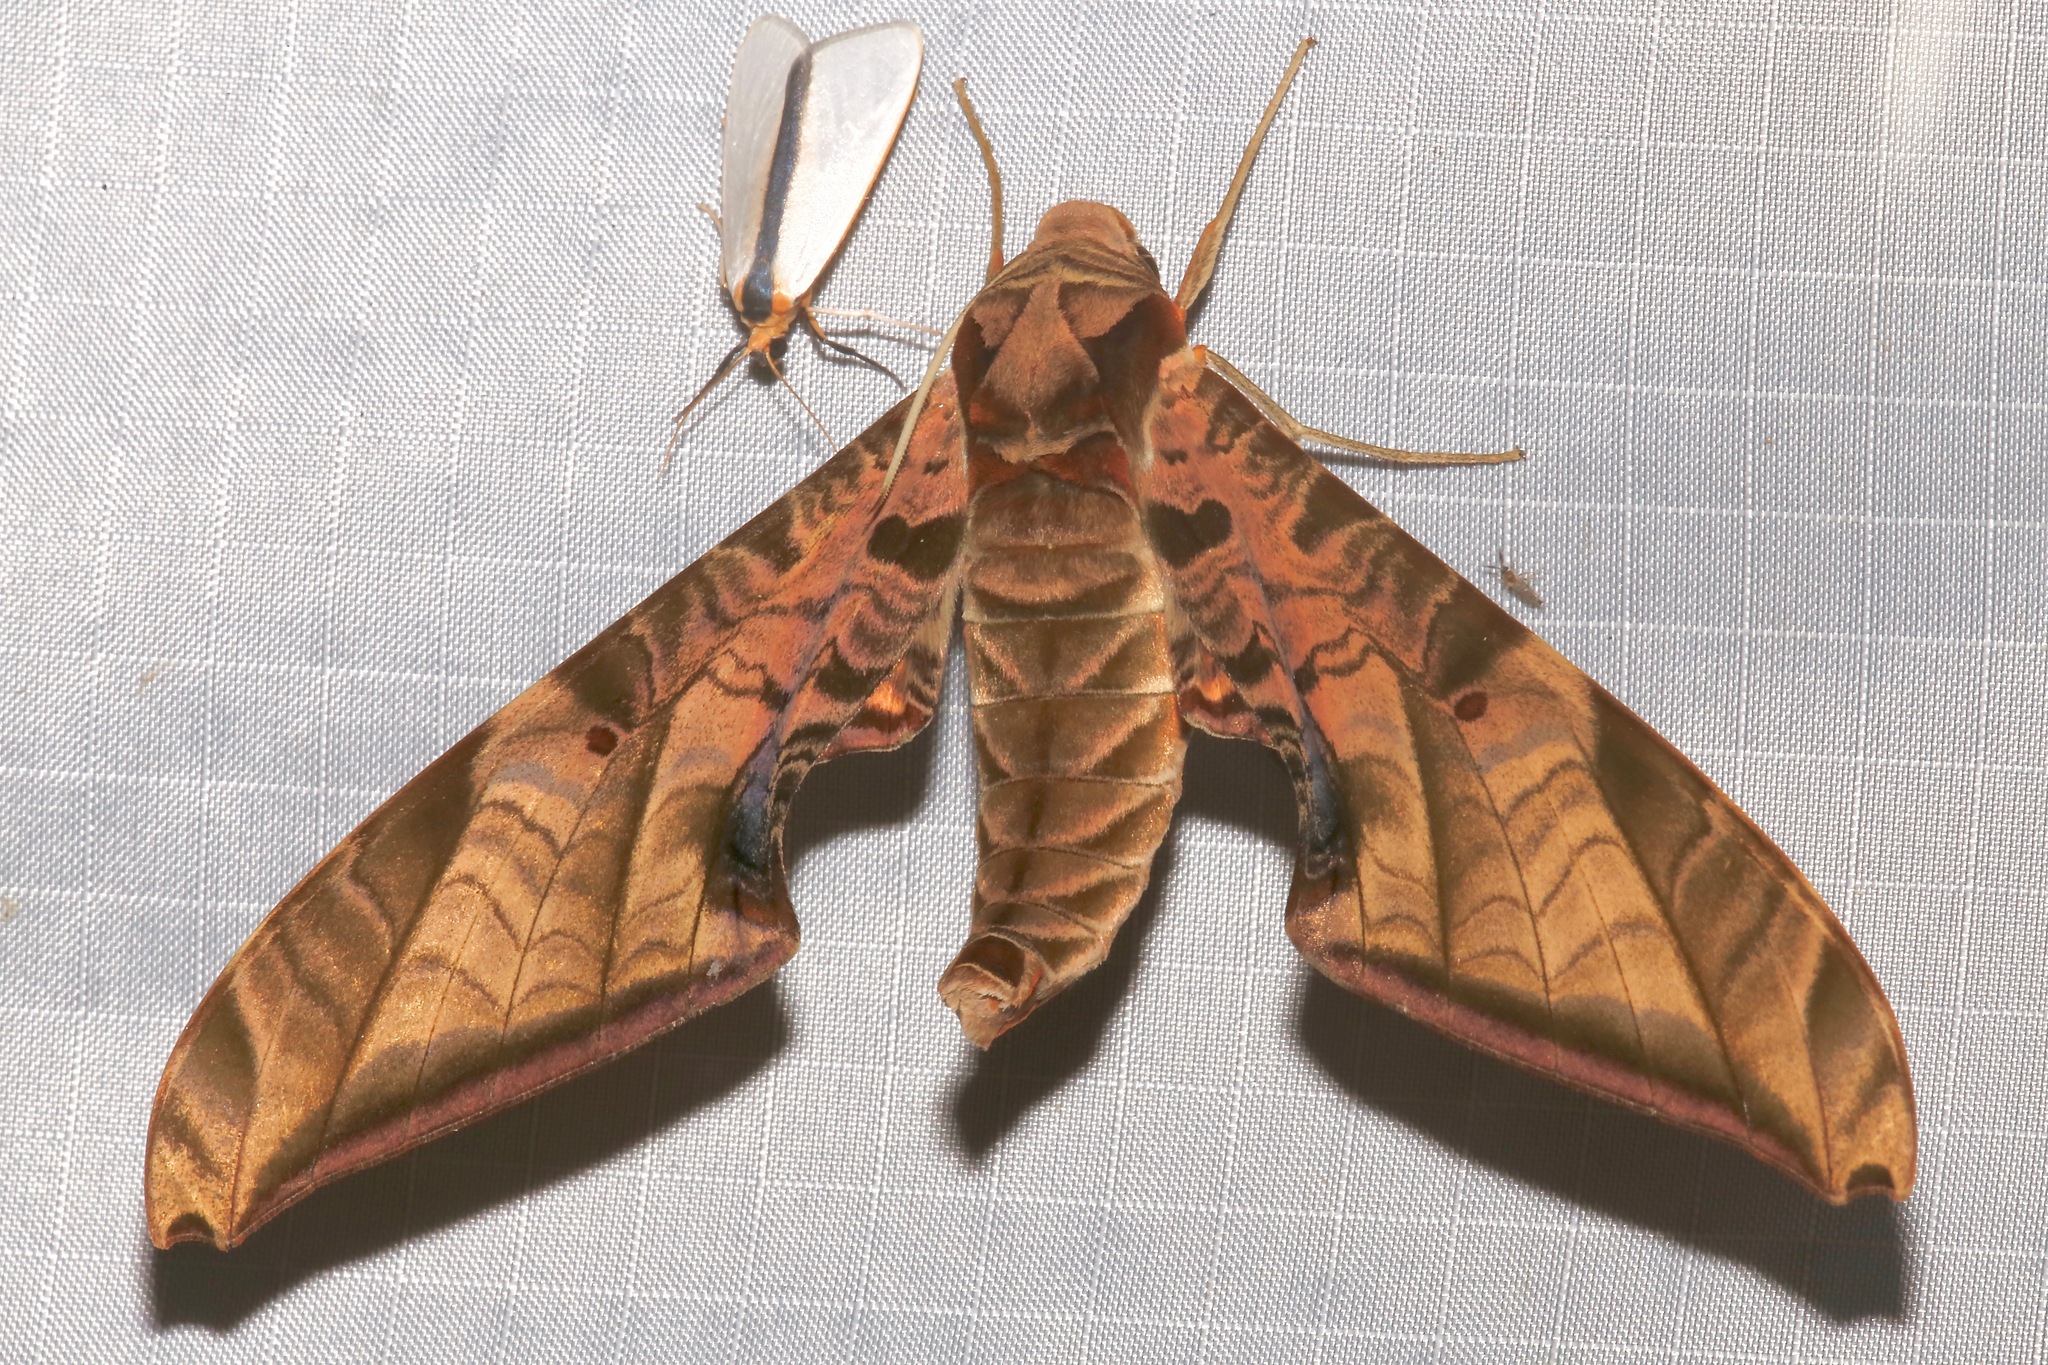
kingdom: Animalia
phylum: Arthropoda
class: Insecta
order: Lepidoptera
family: Sphingidae
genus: Protambulyx
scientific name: Protambulyx euryalus
